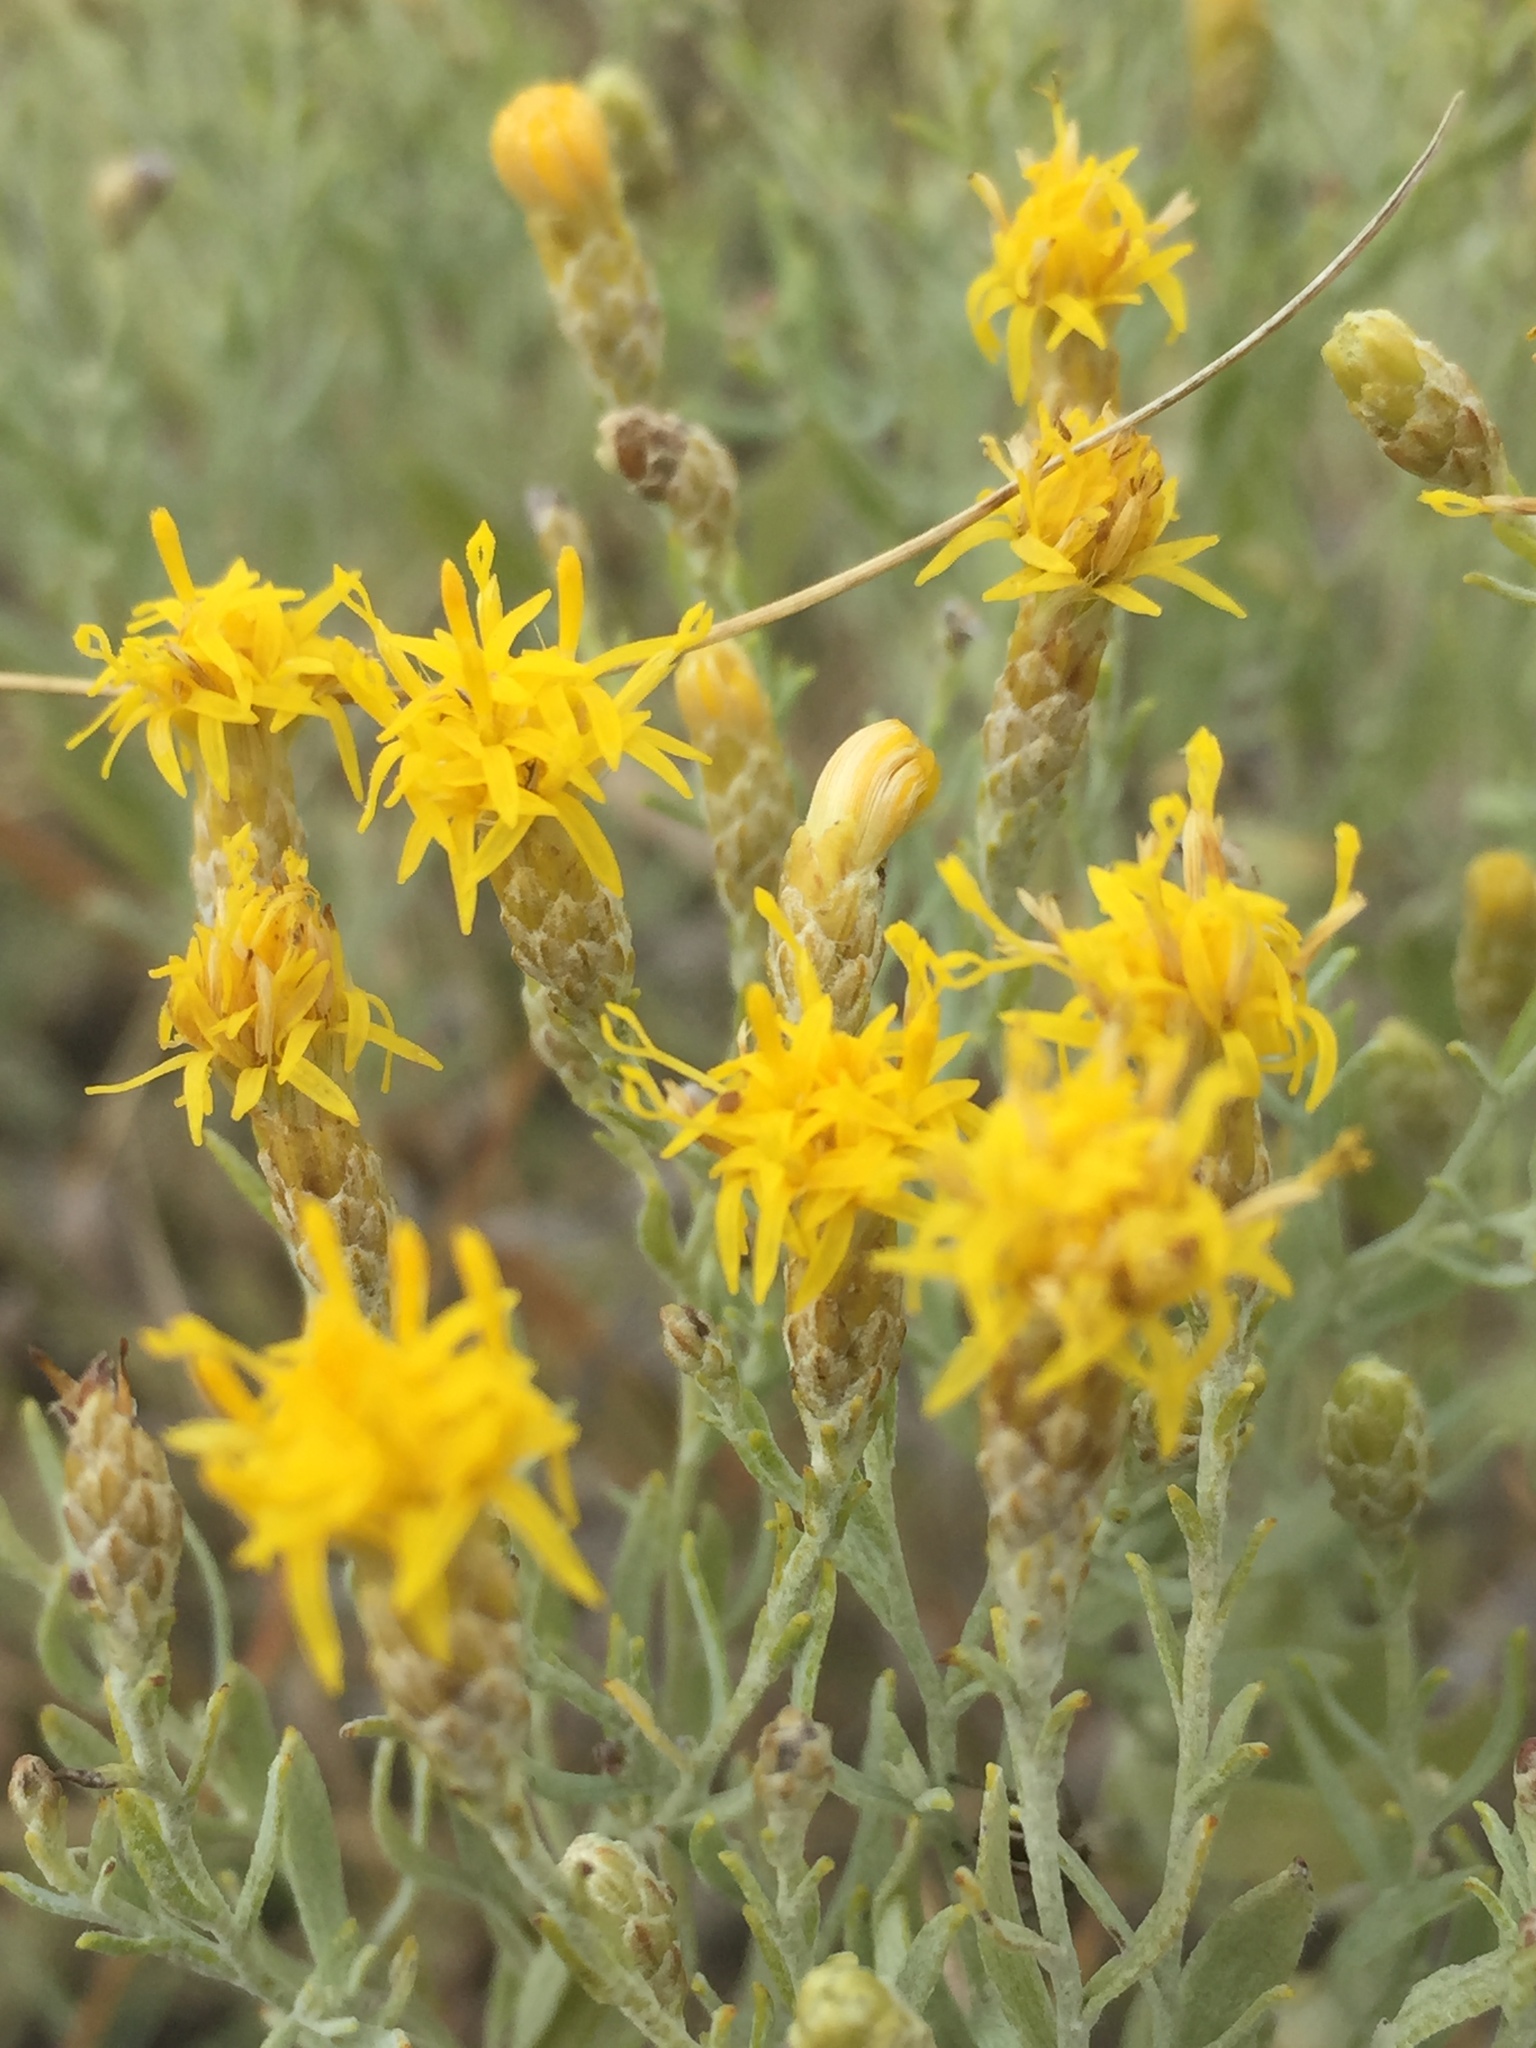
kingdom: Plantae
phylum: Tracheophyta
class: Magnoliopsida
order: Asterales
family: Asteraceae
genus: Galatella
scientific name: Galatella villosa
